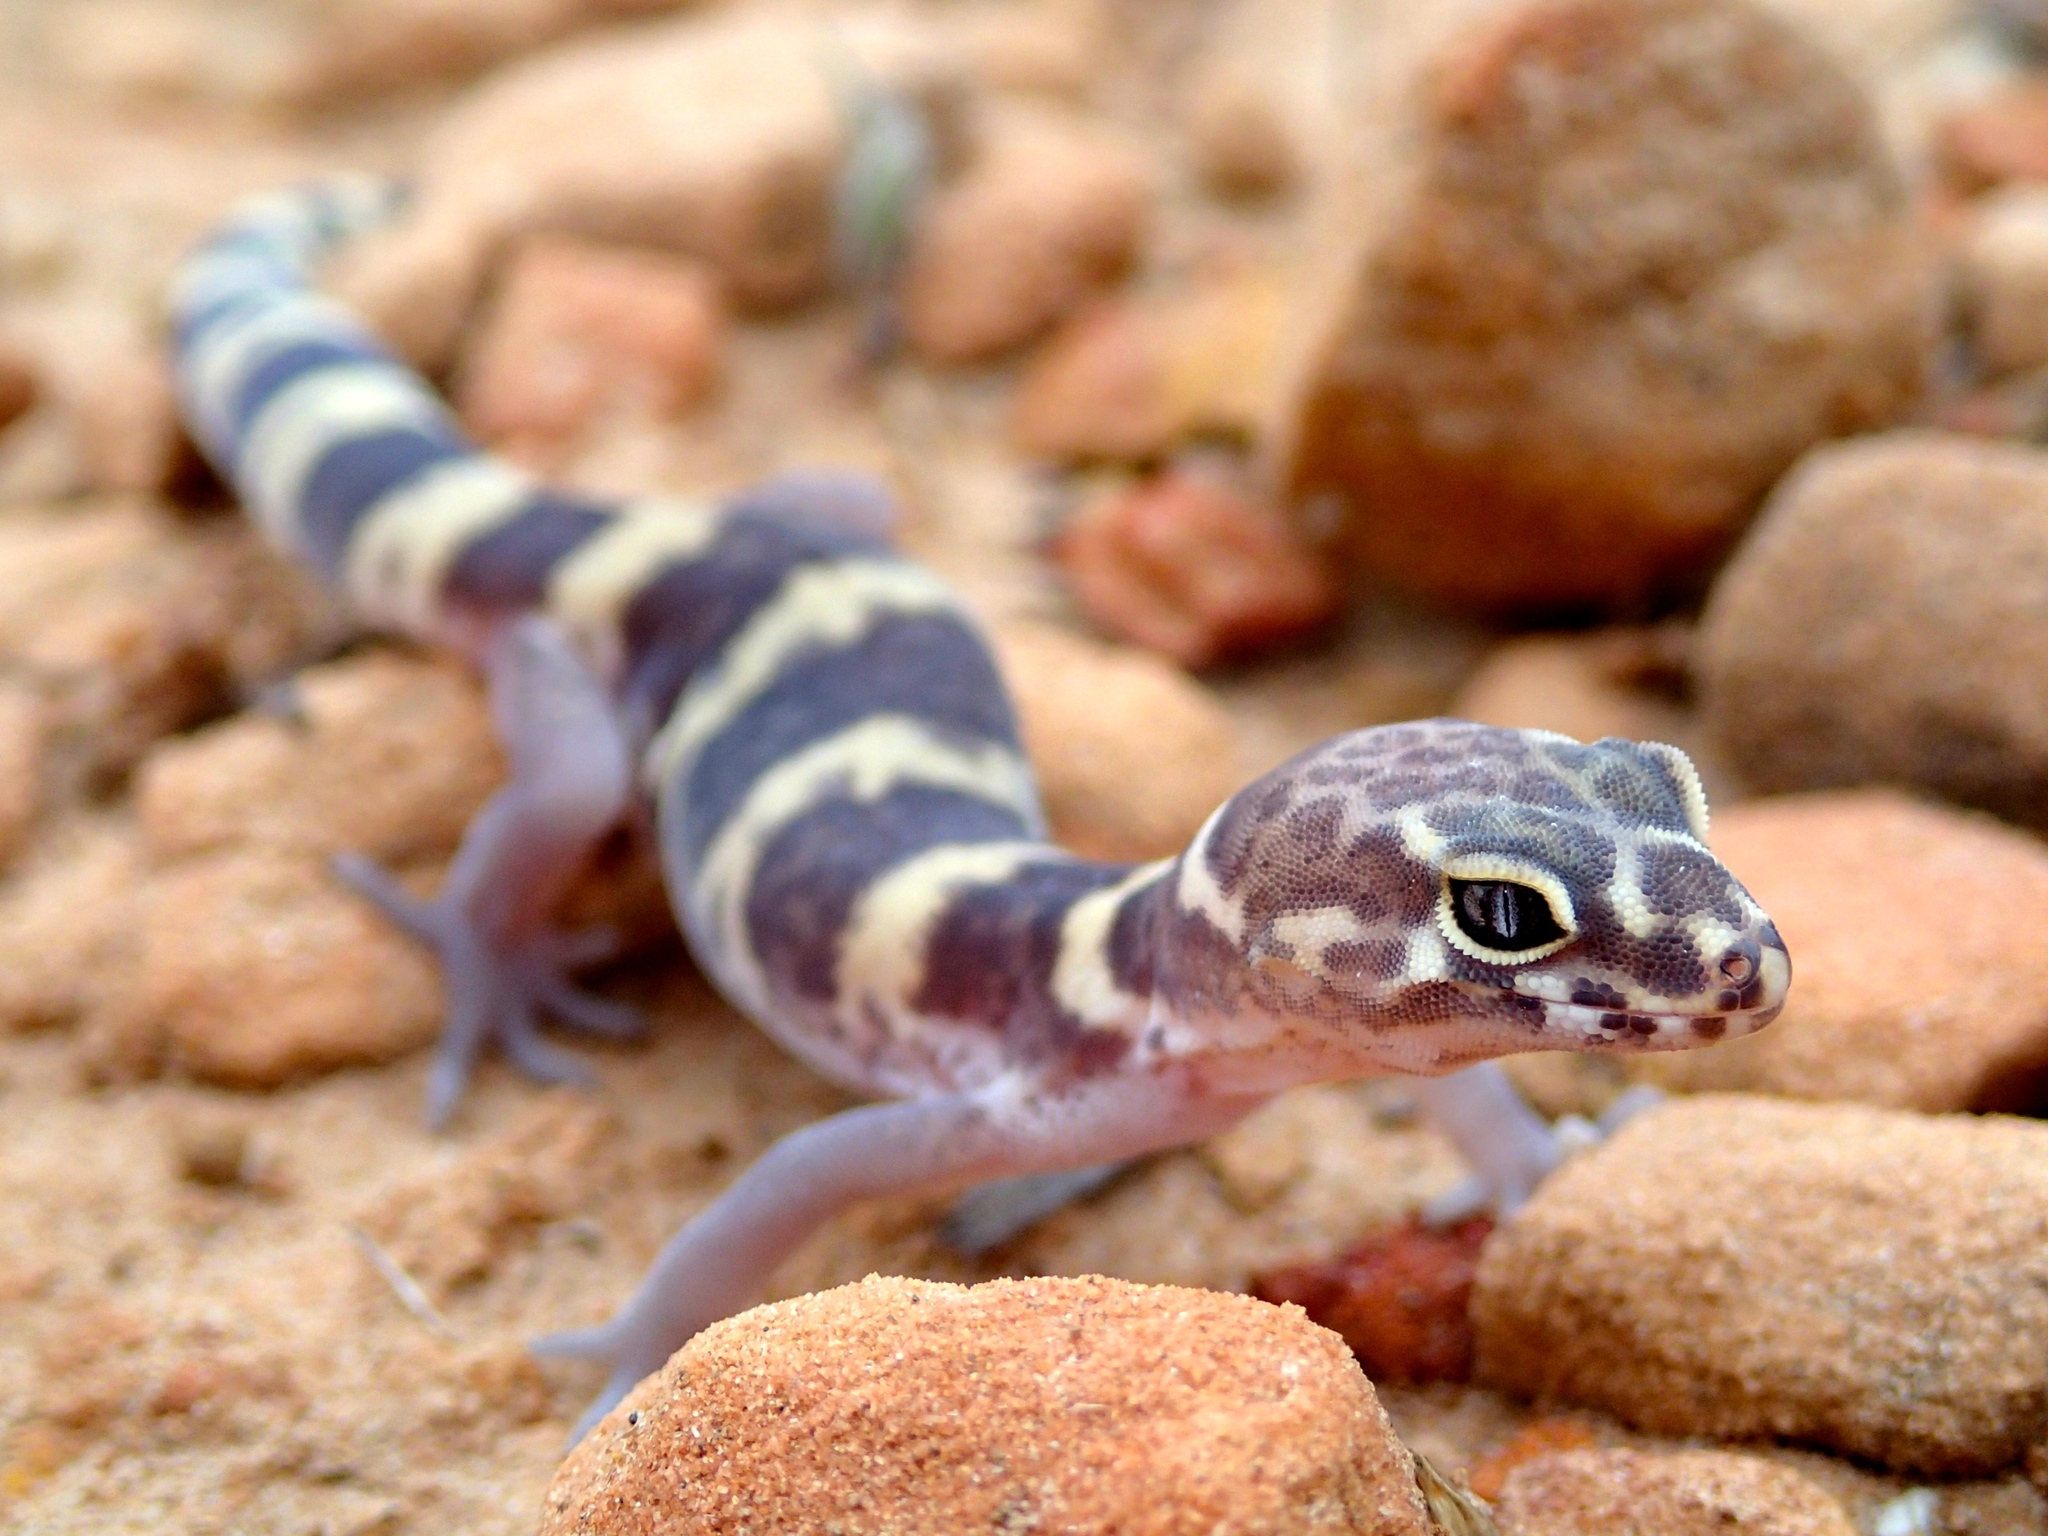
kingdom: Animalia
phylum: Chordata
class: Squamata
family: Eublepharidae
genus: Coleonyx
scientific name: Coleonyx brevis
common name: Texas banded gecko
